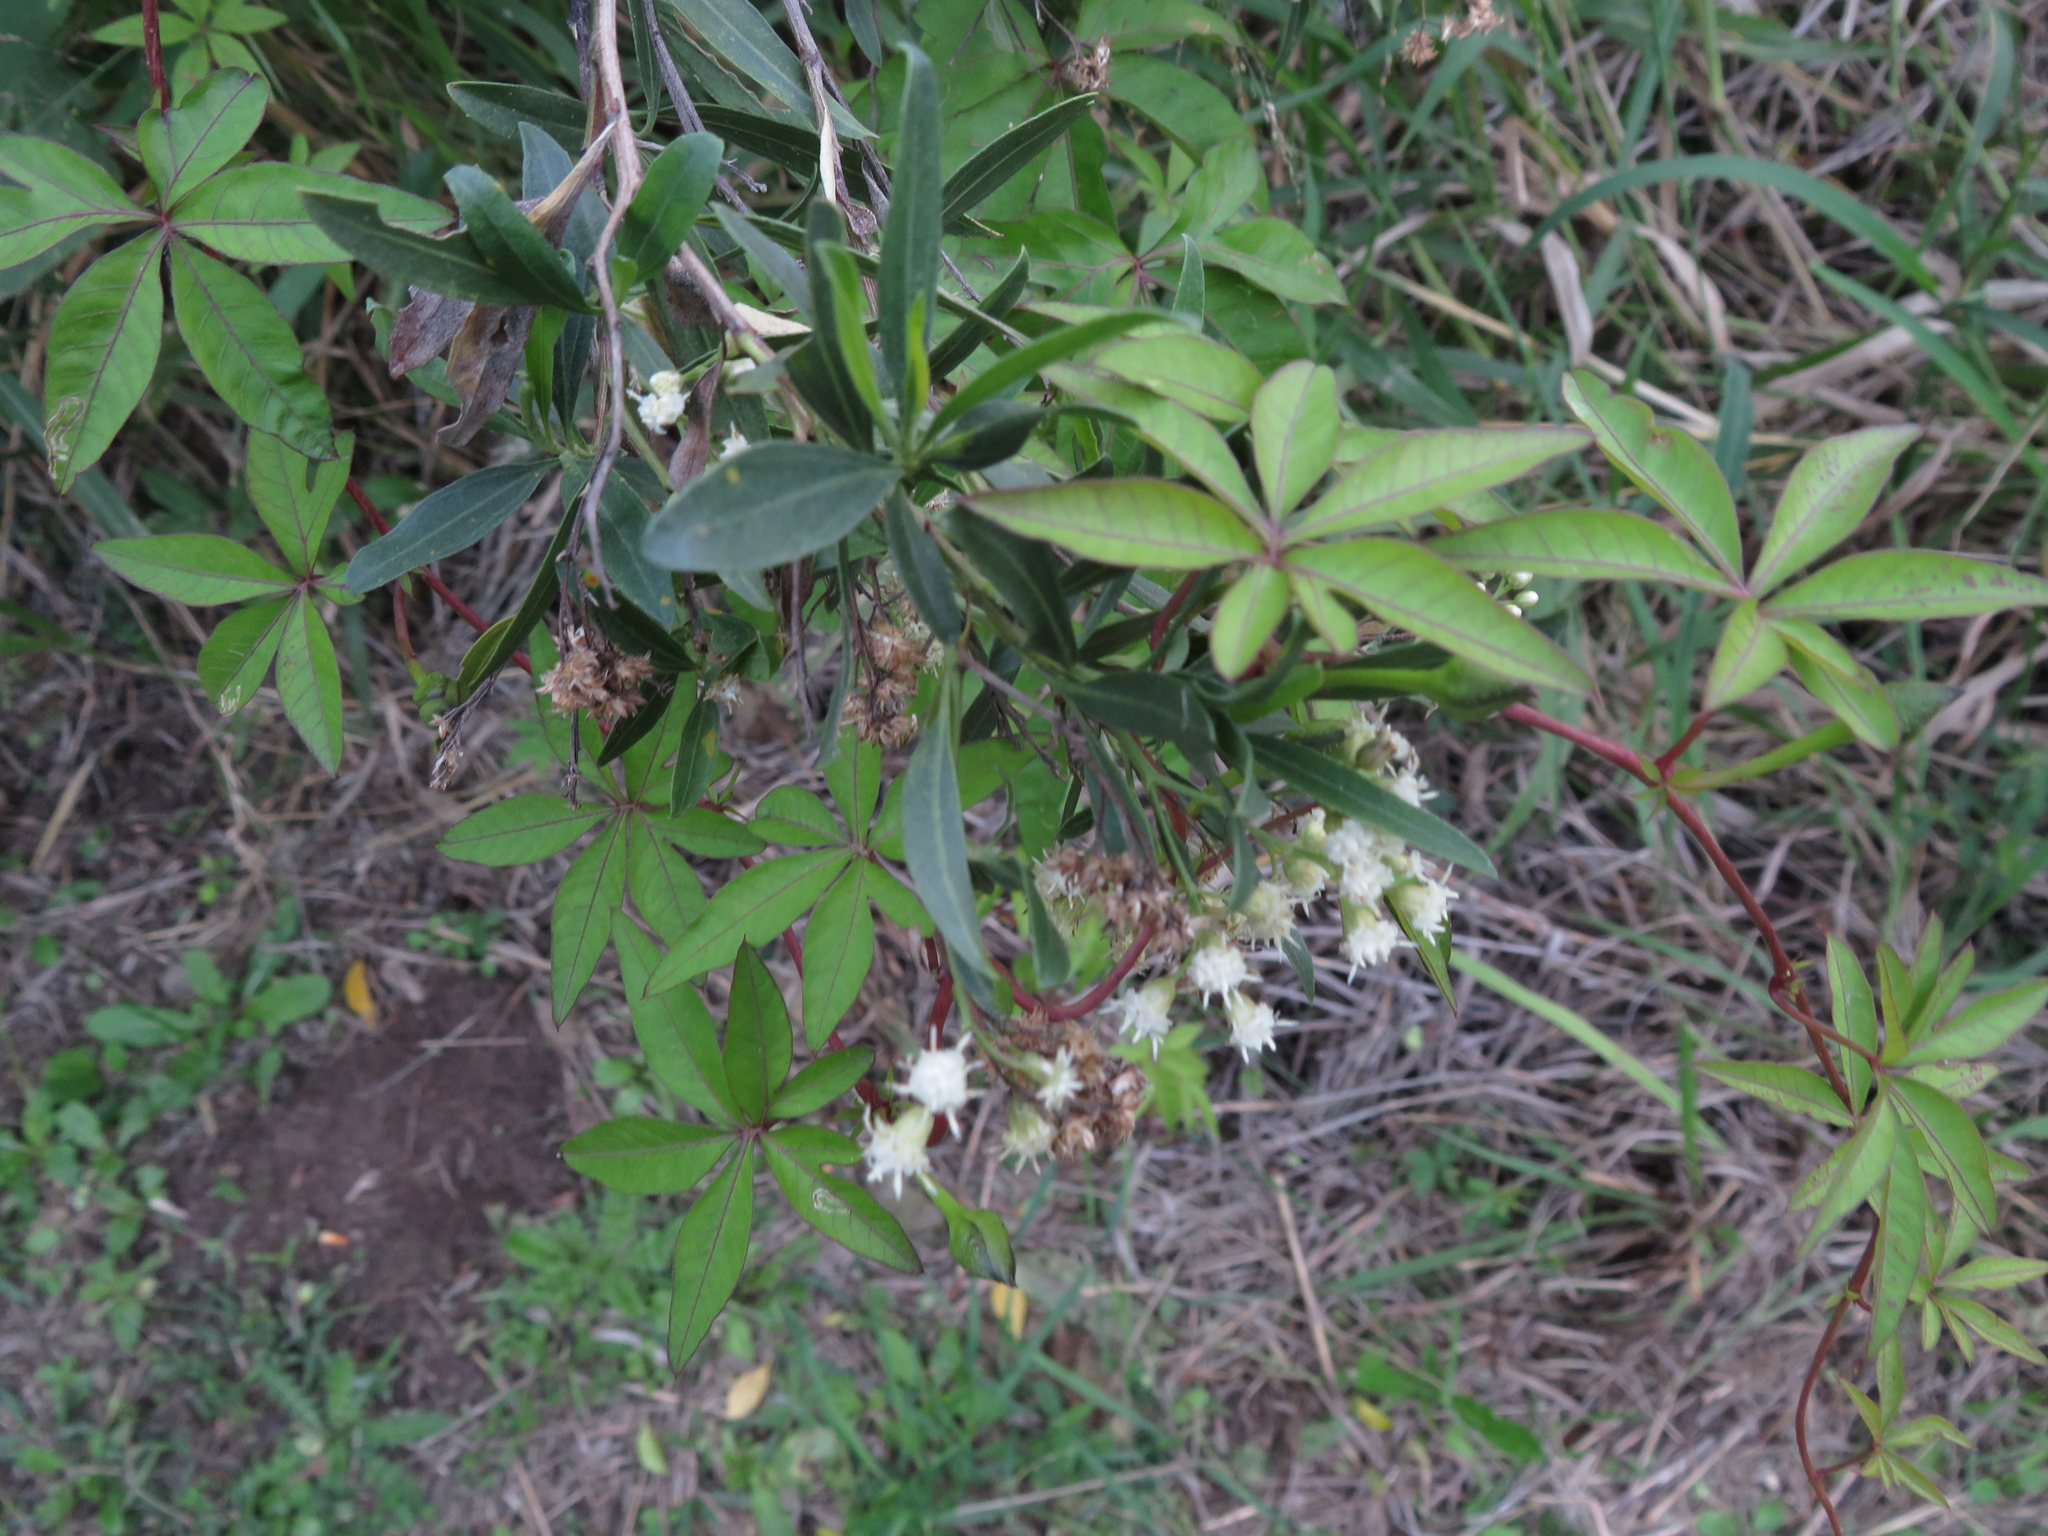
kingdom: Plantae
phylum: Tracheophyta
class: Magnoliopsida
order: Solanales
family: Convolvulaceae
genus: Ipomoea
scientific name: Ipomoea cairica
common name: Mile a minute vine
